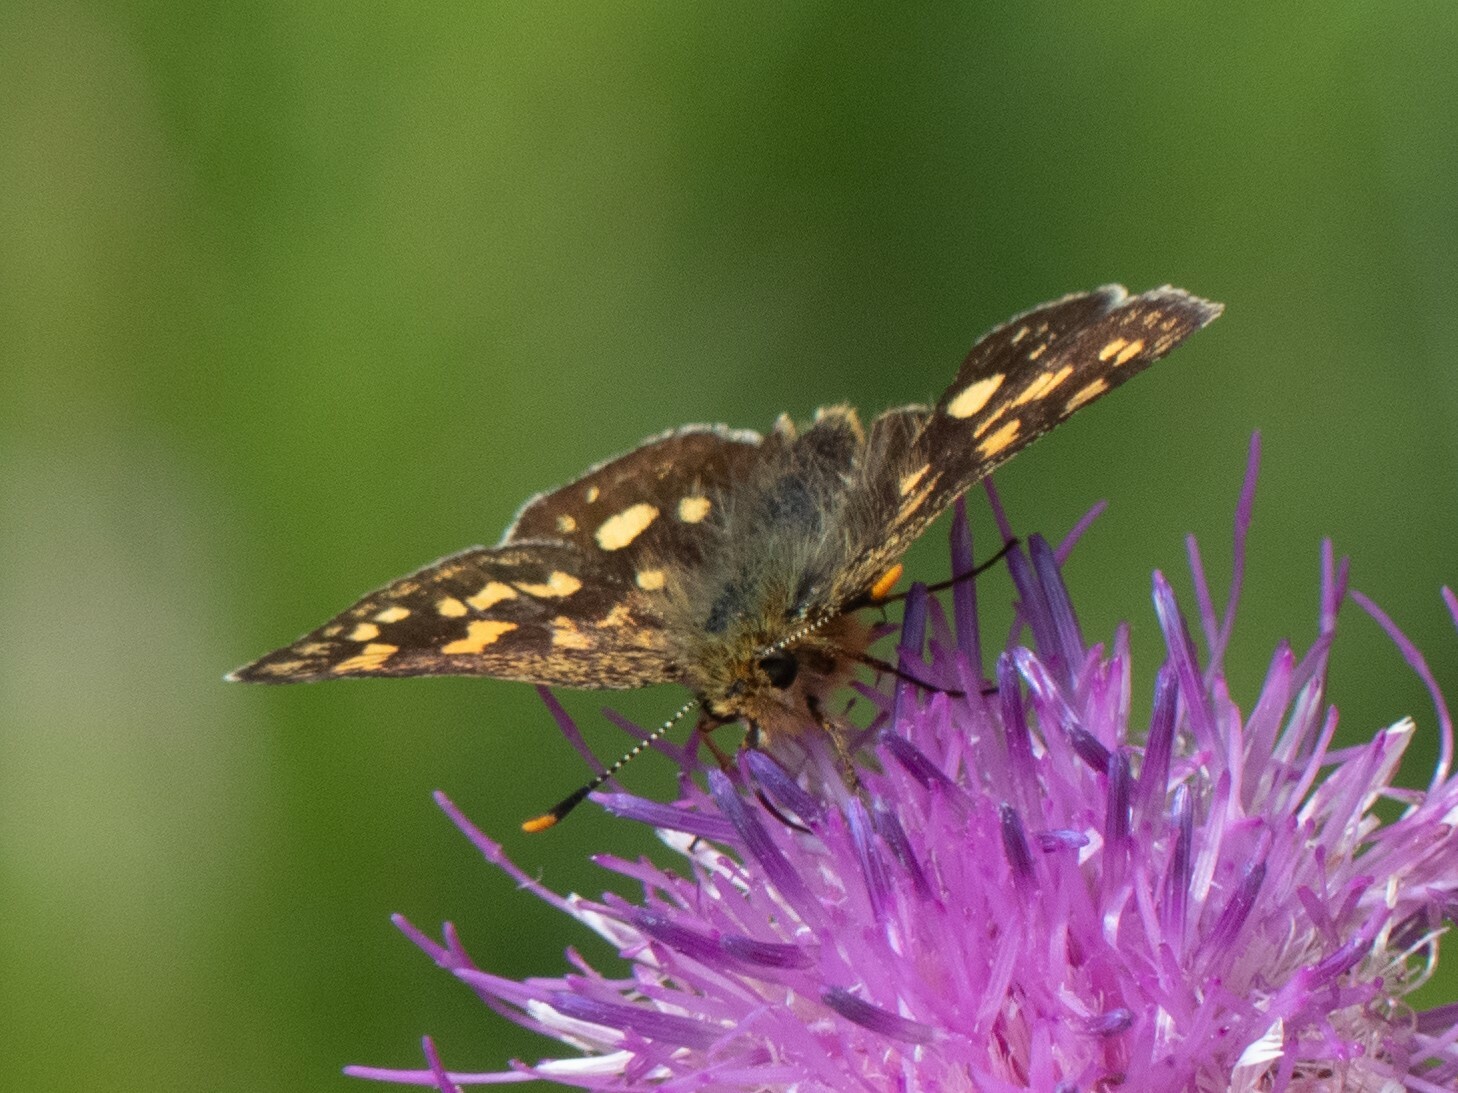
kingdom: Animalia
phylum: Arthropoda
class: Insecta
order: Lepidoptera
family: Hesperiidae
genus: Carterocephalus
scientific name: Carterocephalus palaemon
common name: Chequered skipper
